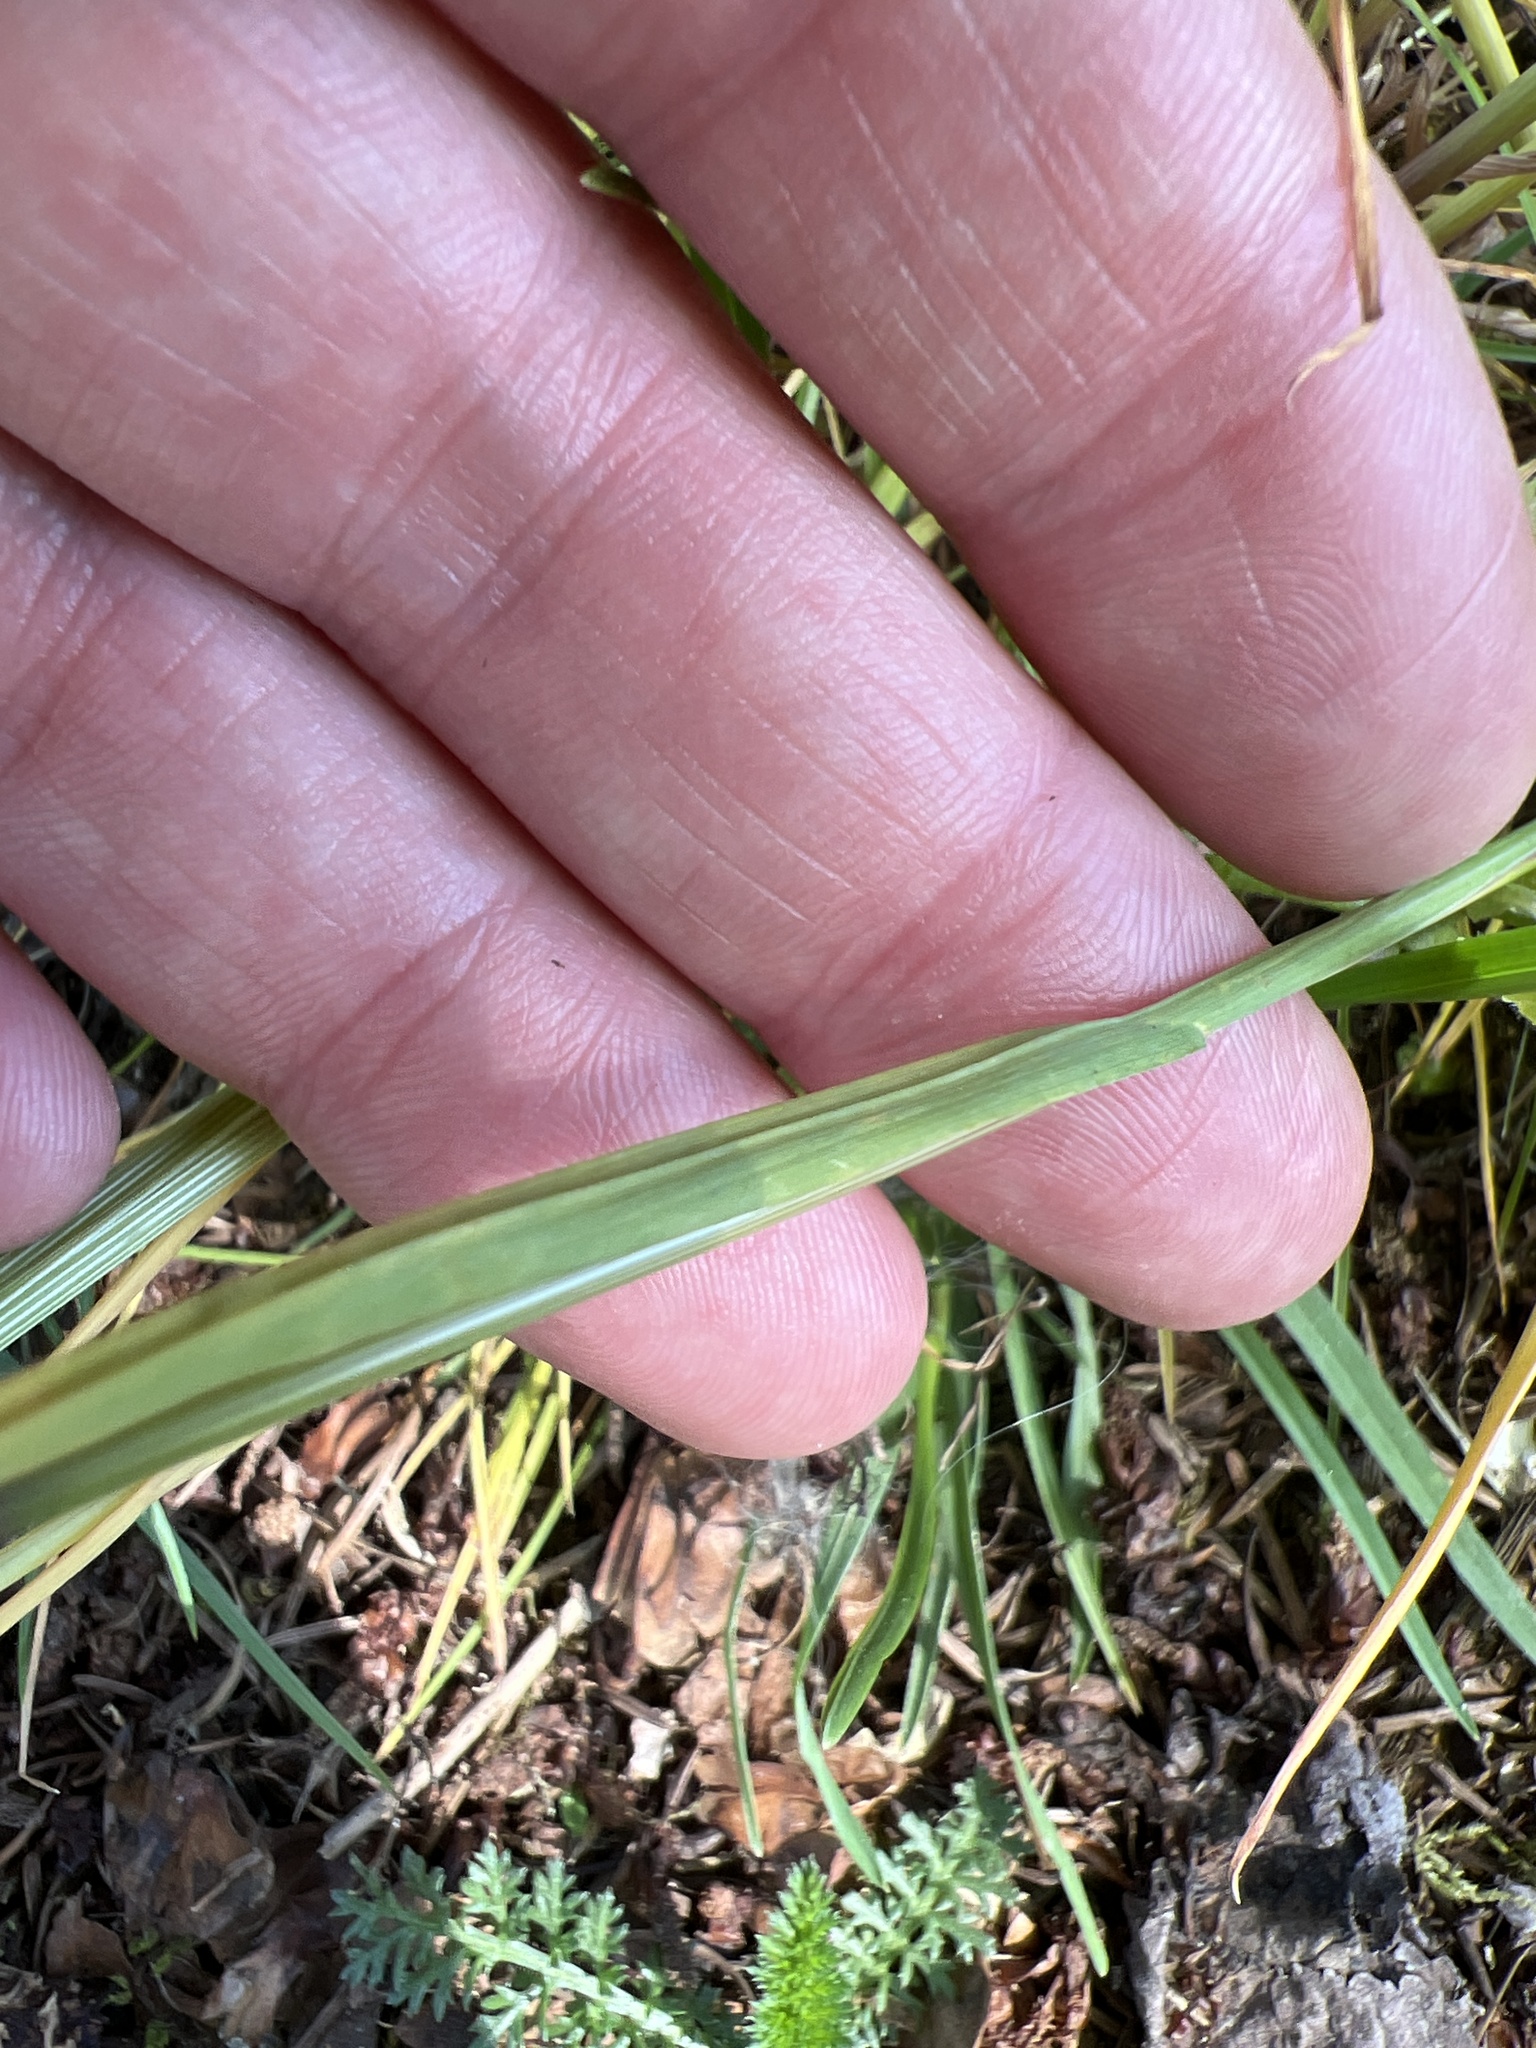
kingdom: Plantae
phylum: Tracheophyta
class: Liliopsida
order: Poales
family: Poaceae
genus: Poa
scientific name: Poa bulbosa
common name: Bulbous bluegrass
